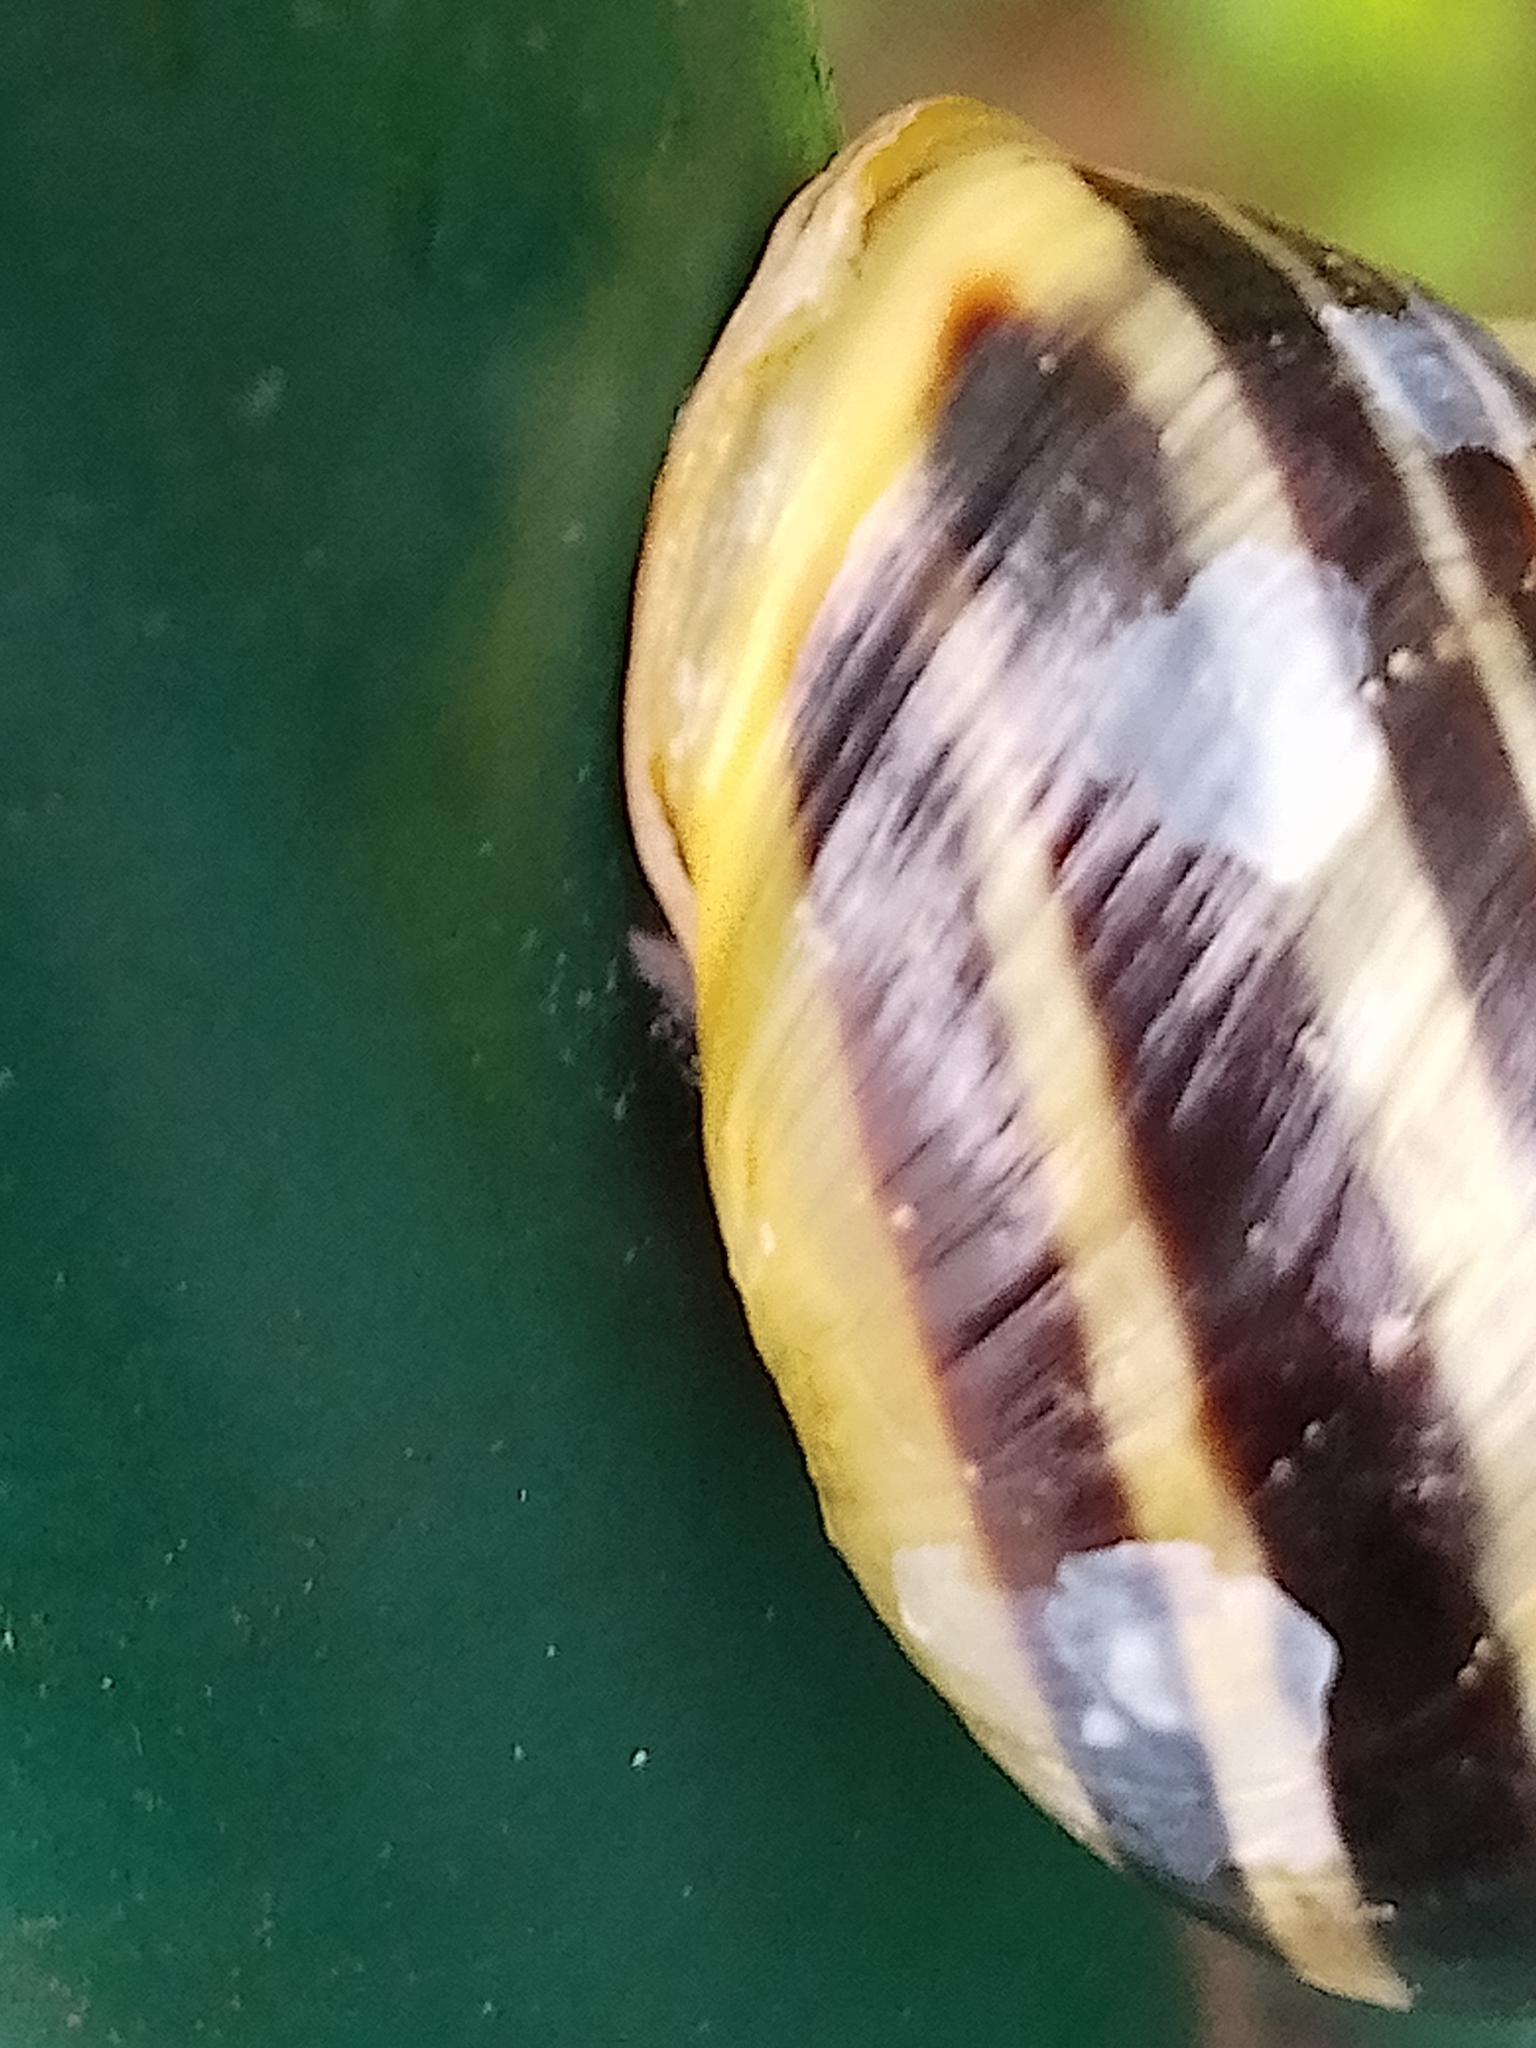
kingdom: Animalia
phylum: Mollusca
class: Gastropoda
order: Stylommatophora
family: Helicidae
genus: Cepaea
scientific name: Cepaea hortensis
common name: White-lip gardensnail
